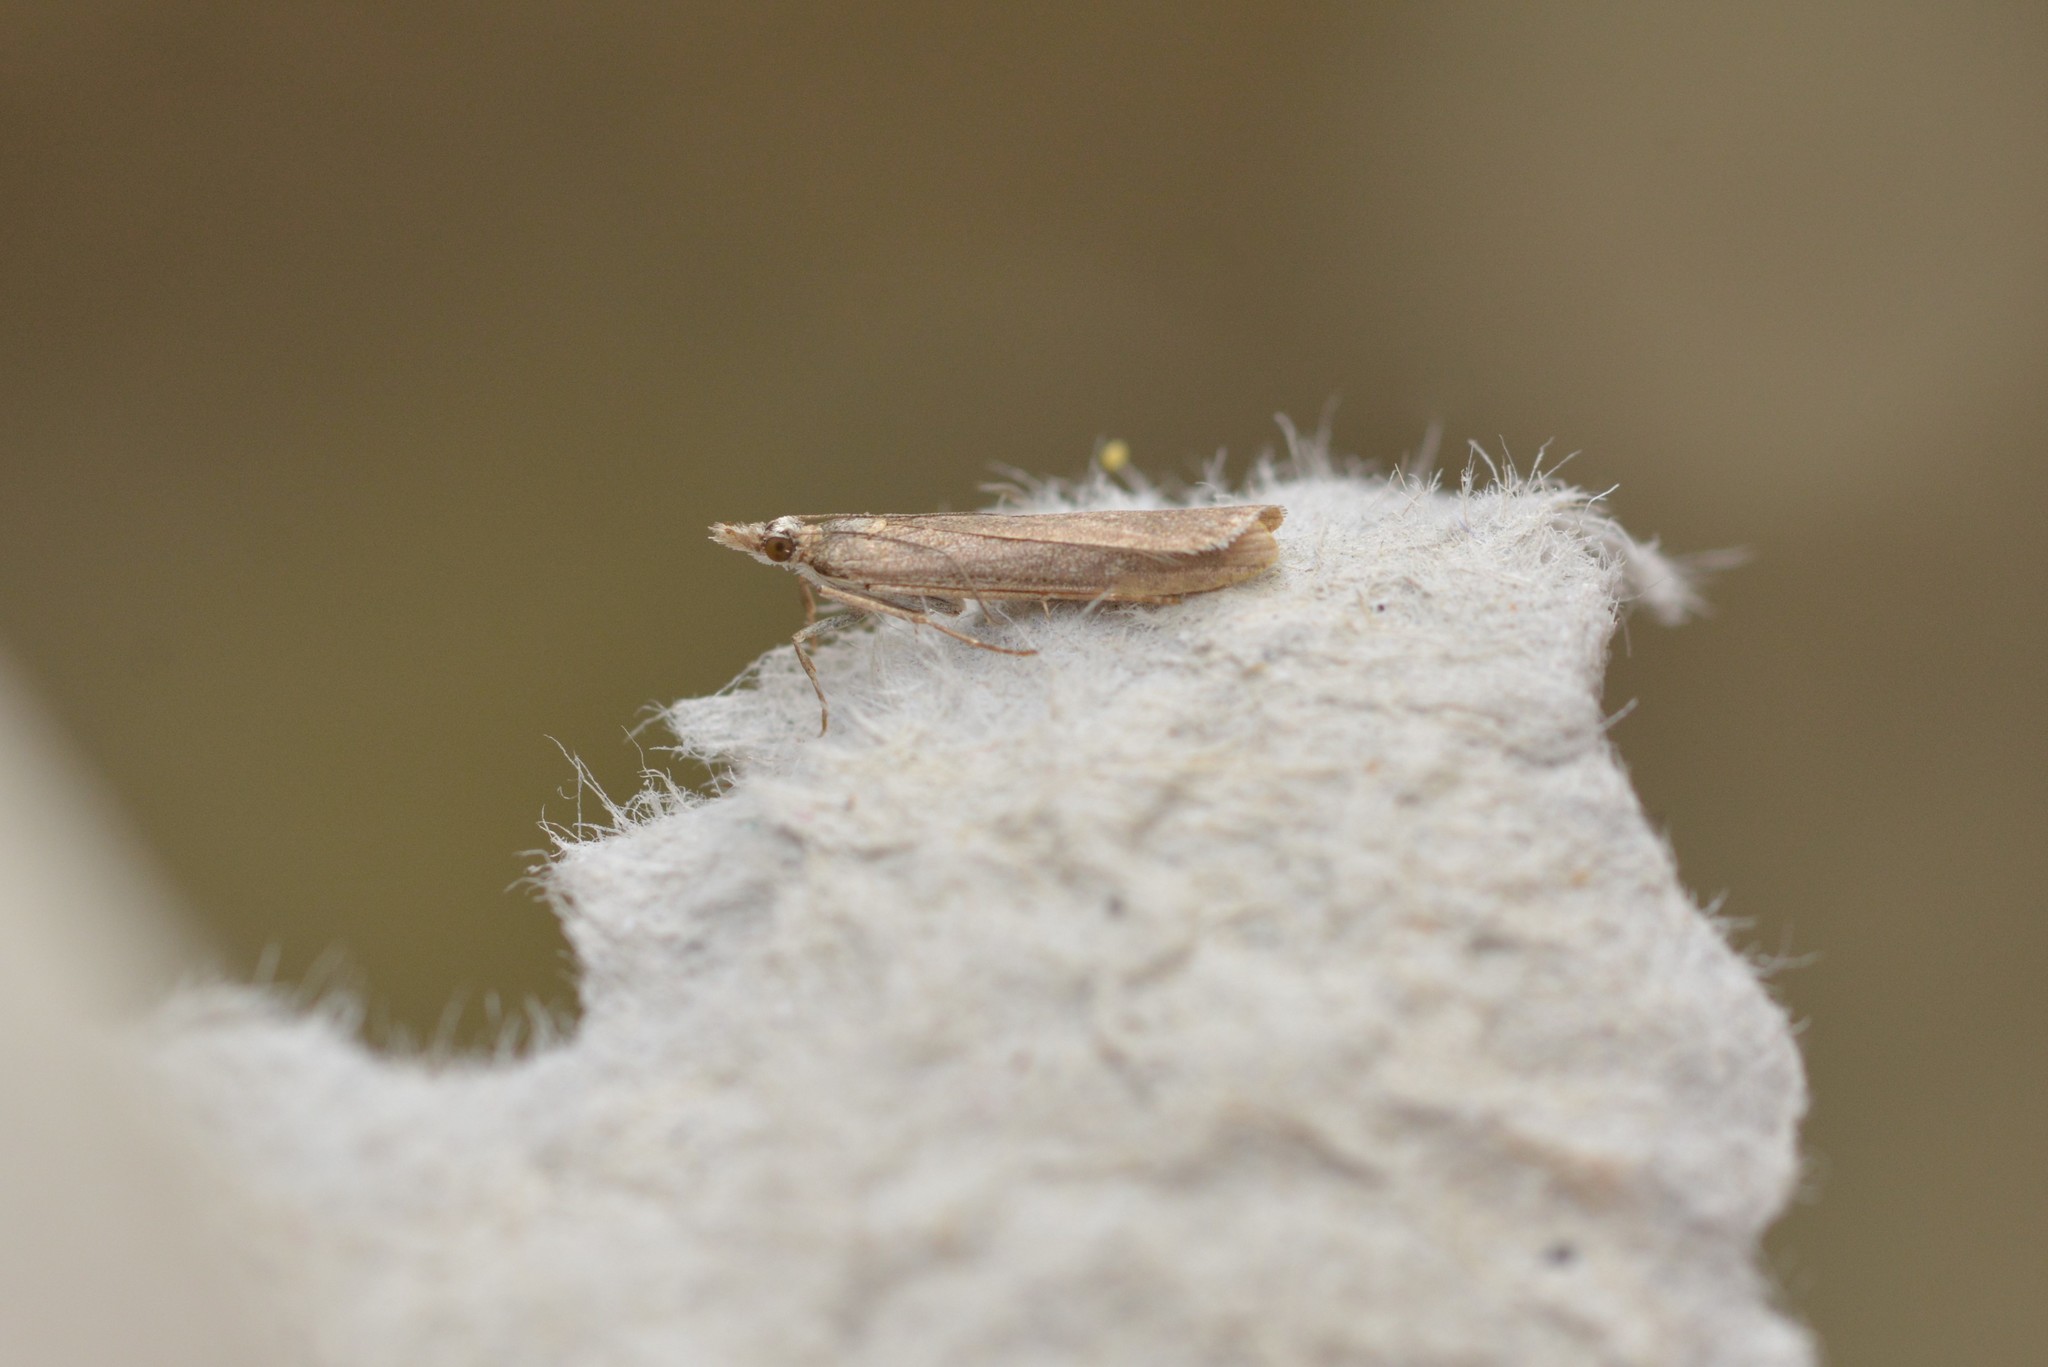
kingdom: Animalia
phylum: Arthropoda
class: Insecta
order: Lepidoptera
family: Crambidae
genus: Eudonia
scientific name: Eudonia leptalea
